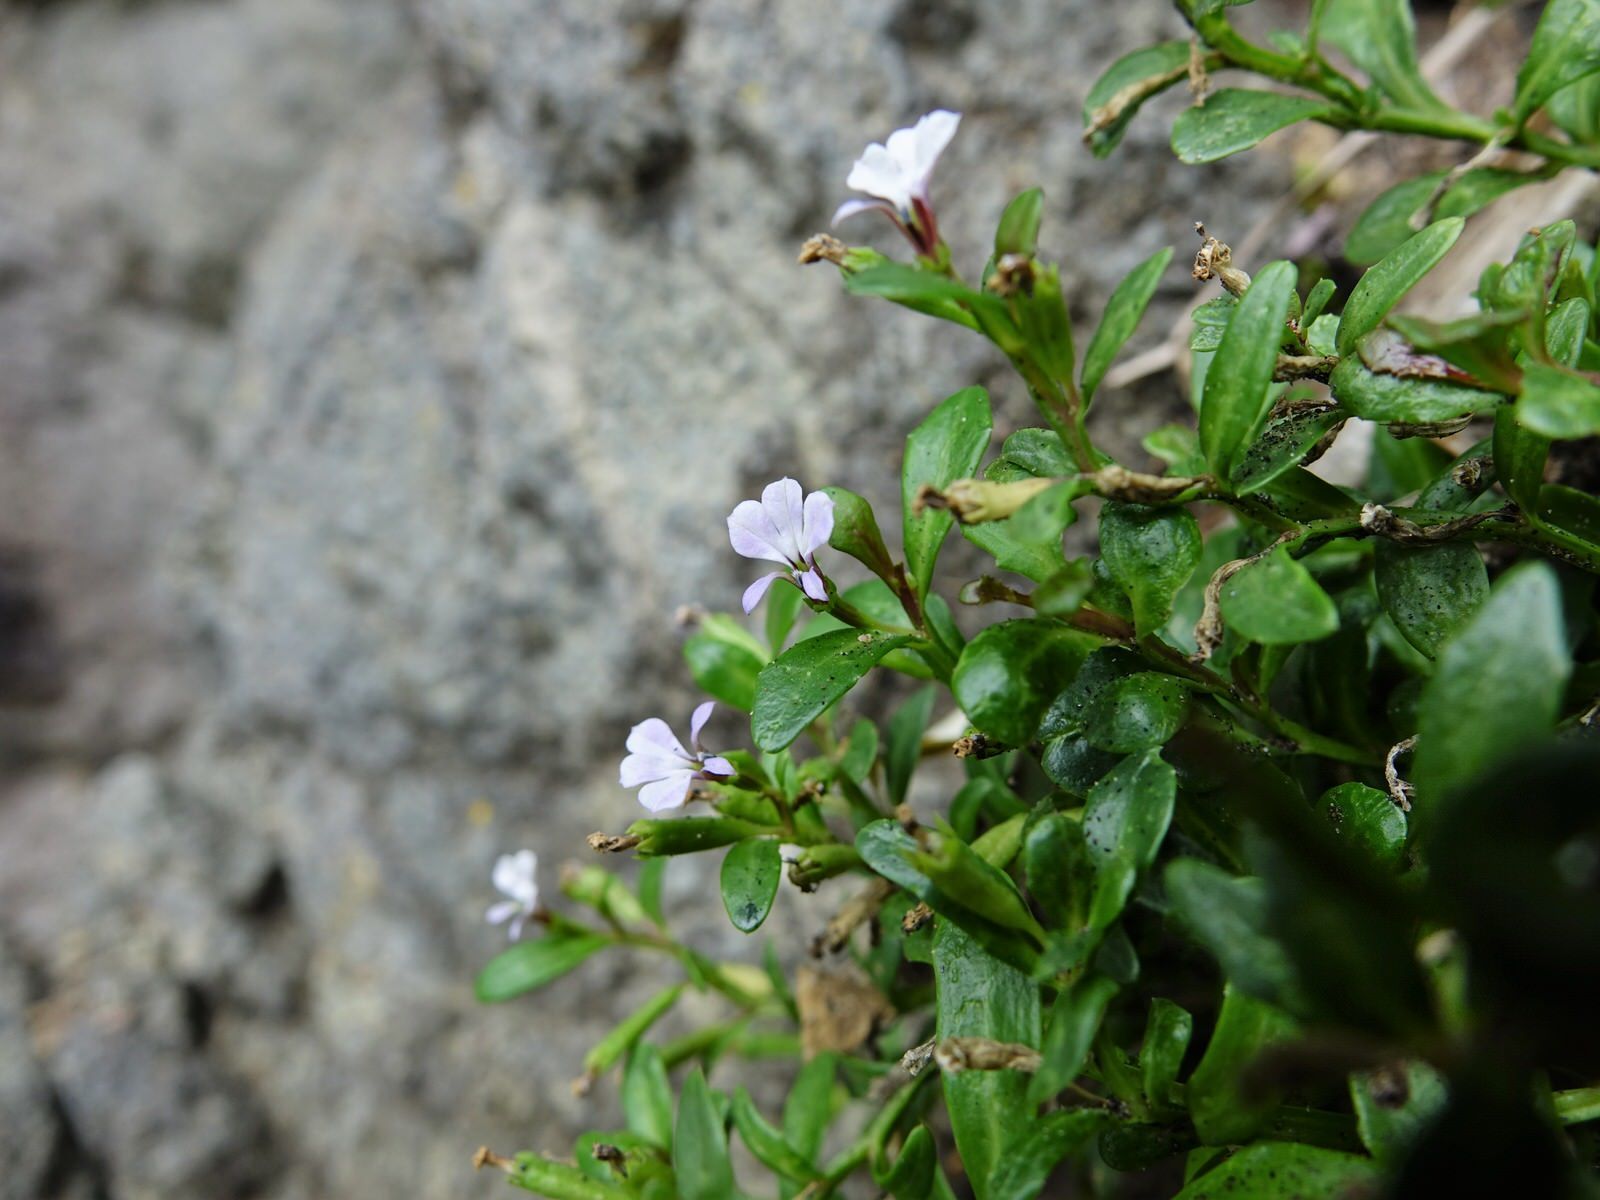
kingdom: Plantae
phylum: Tracheophyta
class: Magnoliopsida
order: Asterales
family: Campanulaceae
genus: Lobelia
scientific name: Lobelia anceps
